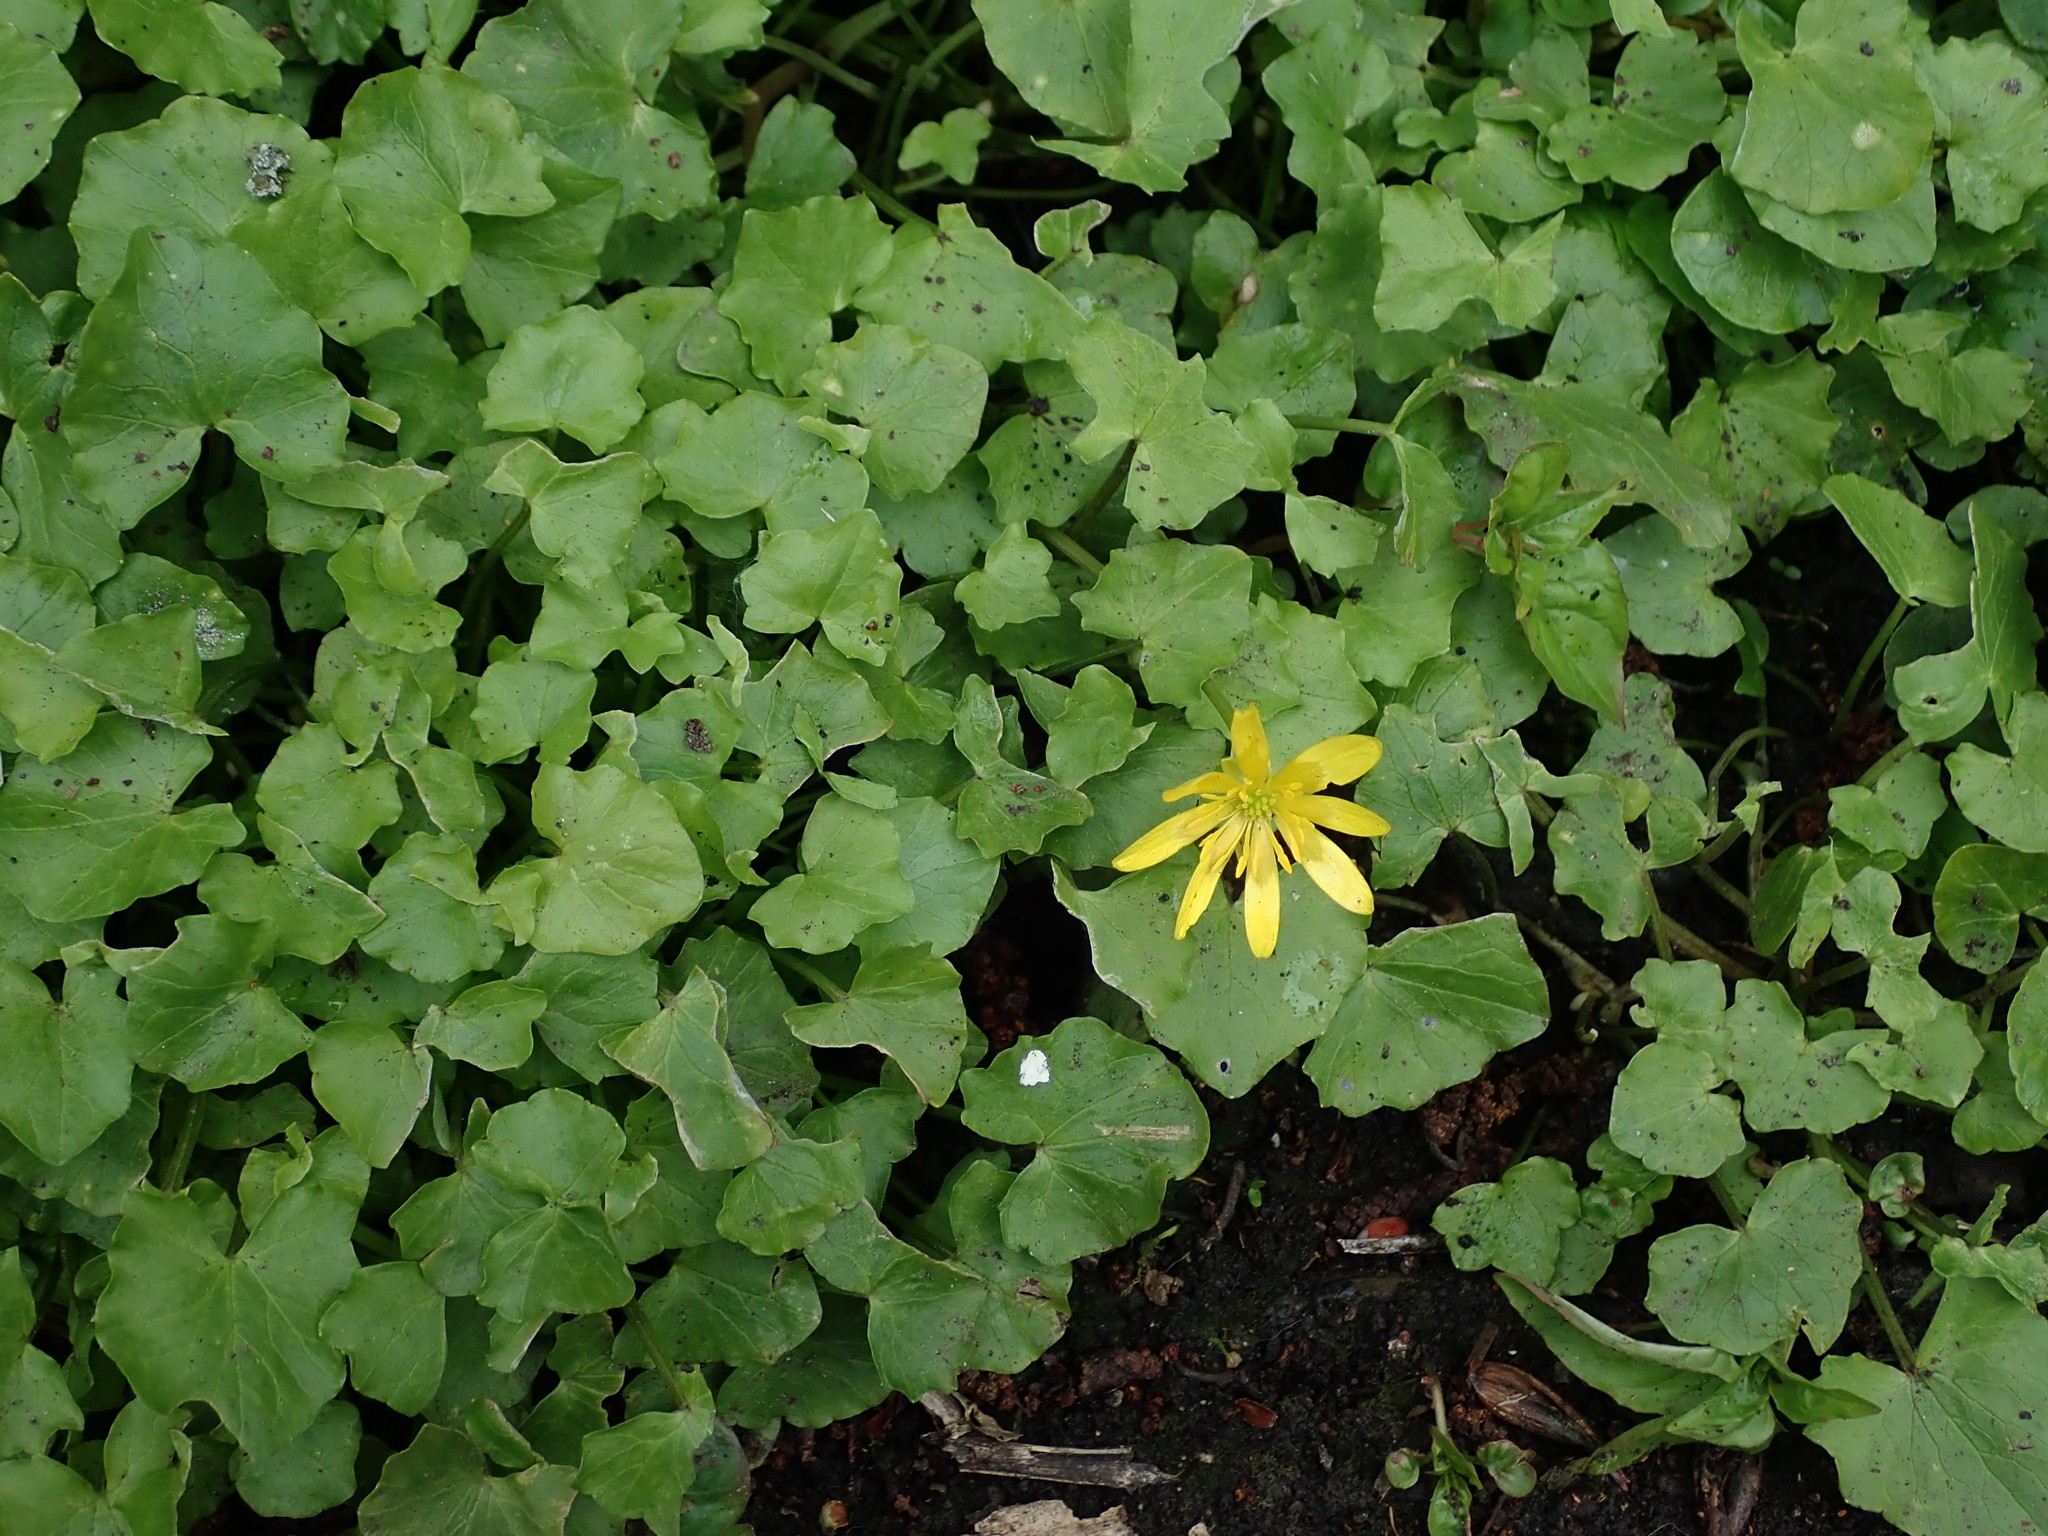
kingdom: Plantae
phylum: Tracheophyta
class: Magnoliopsida
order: Ranunculales
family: Ranunculaceae
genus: Ficaria
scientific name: Ficaria verna
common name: Lesser celandine
